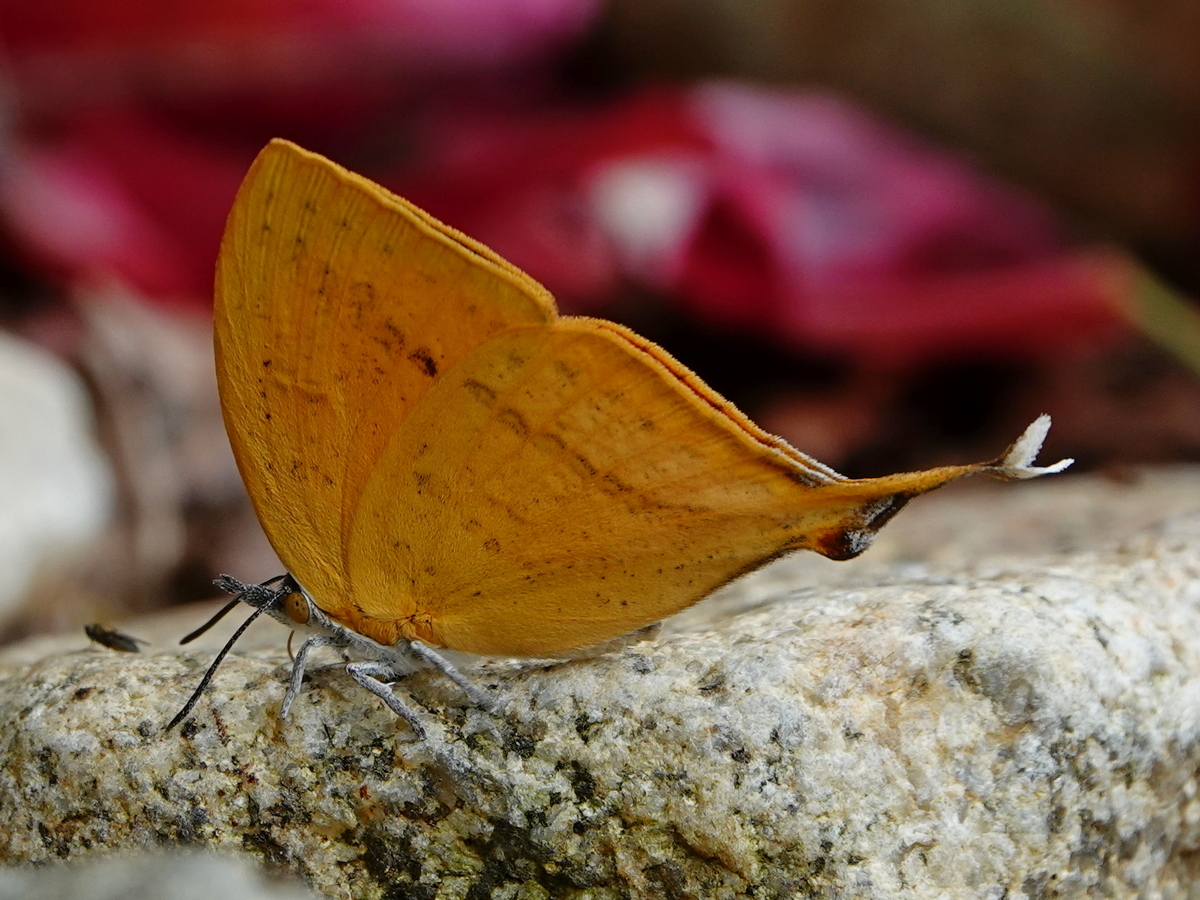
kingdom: Animalia
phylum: Arthropoda
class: Insecta
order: Lepidoptera
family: Lycaenidae
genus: Loxura
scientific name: Loxura atymnus
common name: Common yamfly
